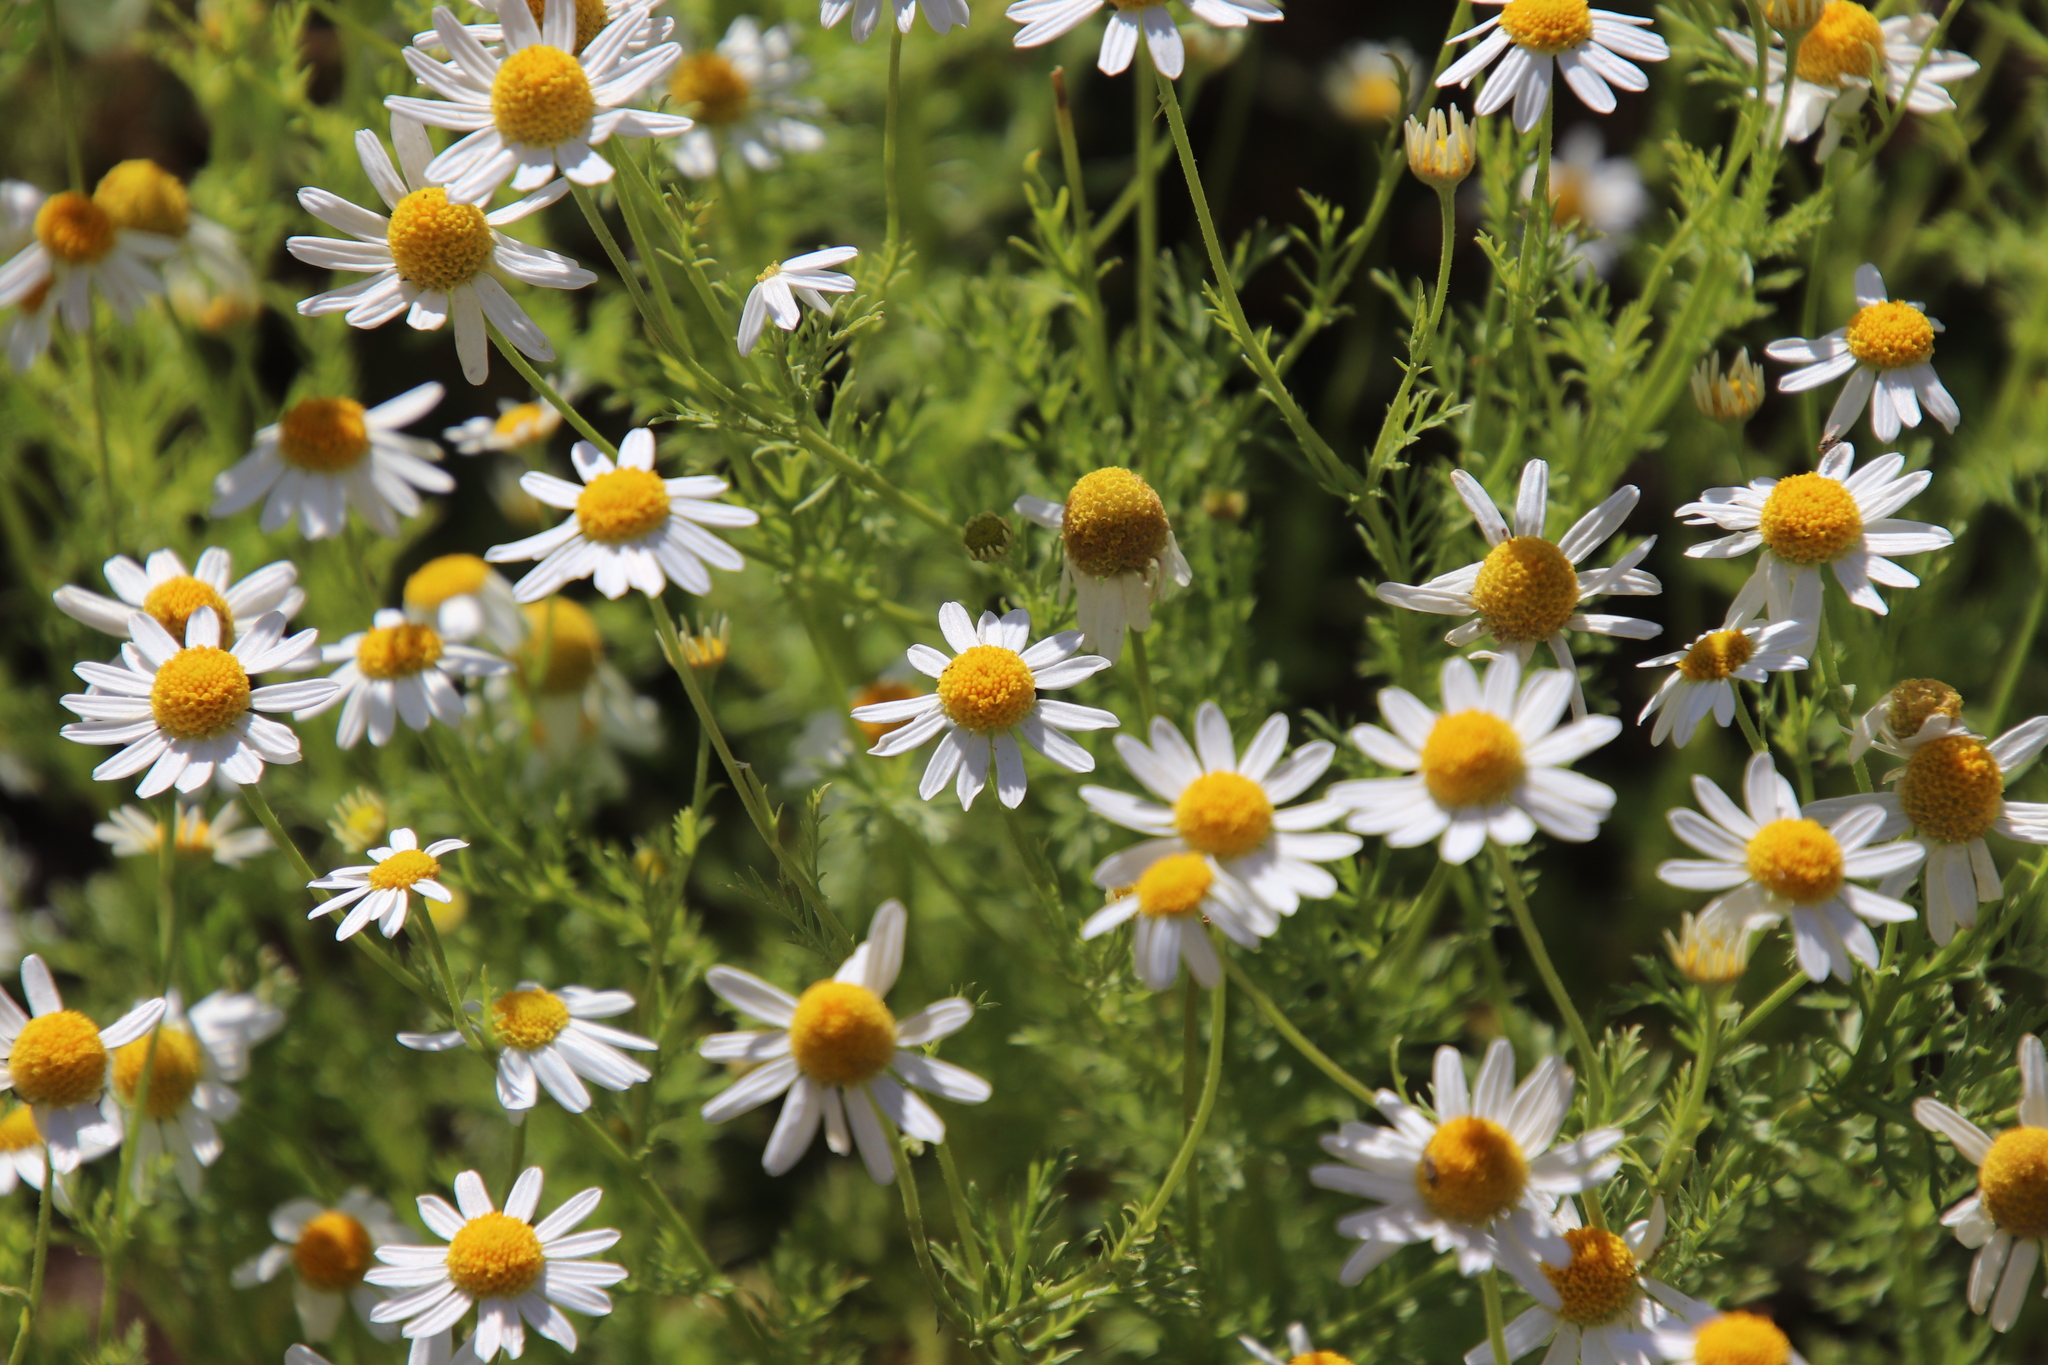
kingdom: Plantae
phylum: Tracheophyta
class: Magnoliopsida
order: Asterales
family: Asteraceae
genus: Anthemis
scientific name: Anthemis cotula
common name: Stinking chamomile
